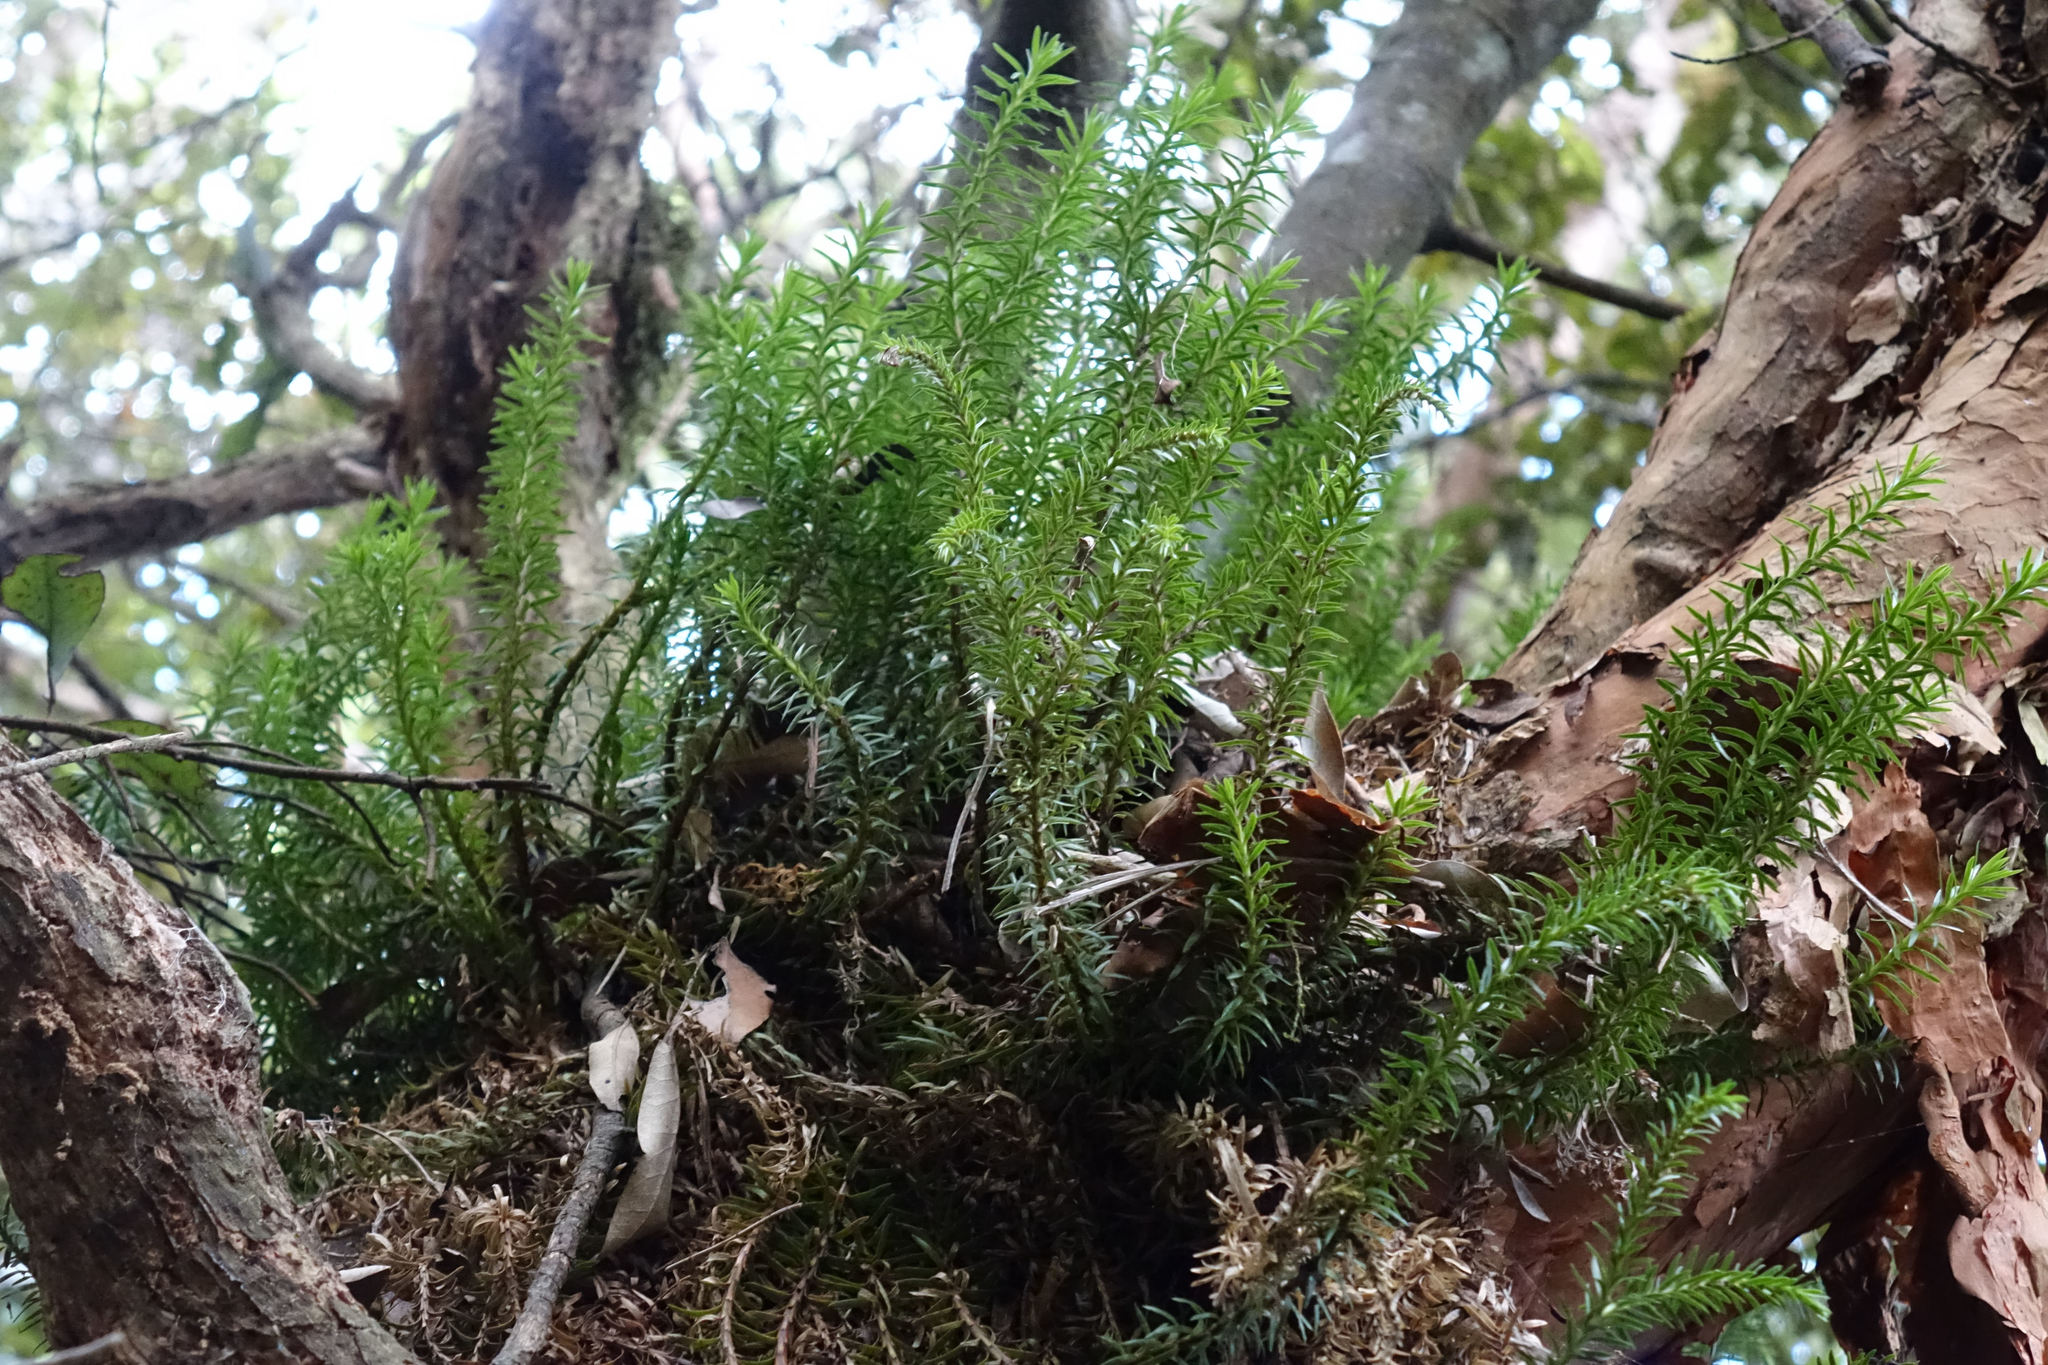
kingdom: Plantae
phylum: Tracheophyta
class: Lycopodiopsida
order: Lycopodiales
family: Lycopodiaceae
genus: Phlegmariurus
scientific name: Phlegmariurus varius
